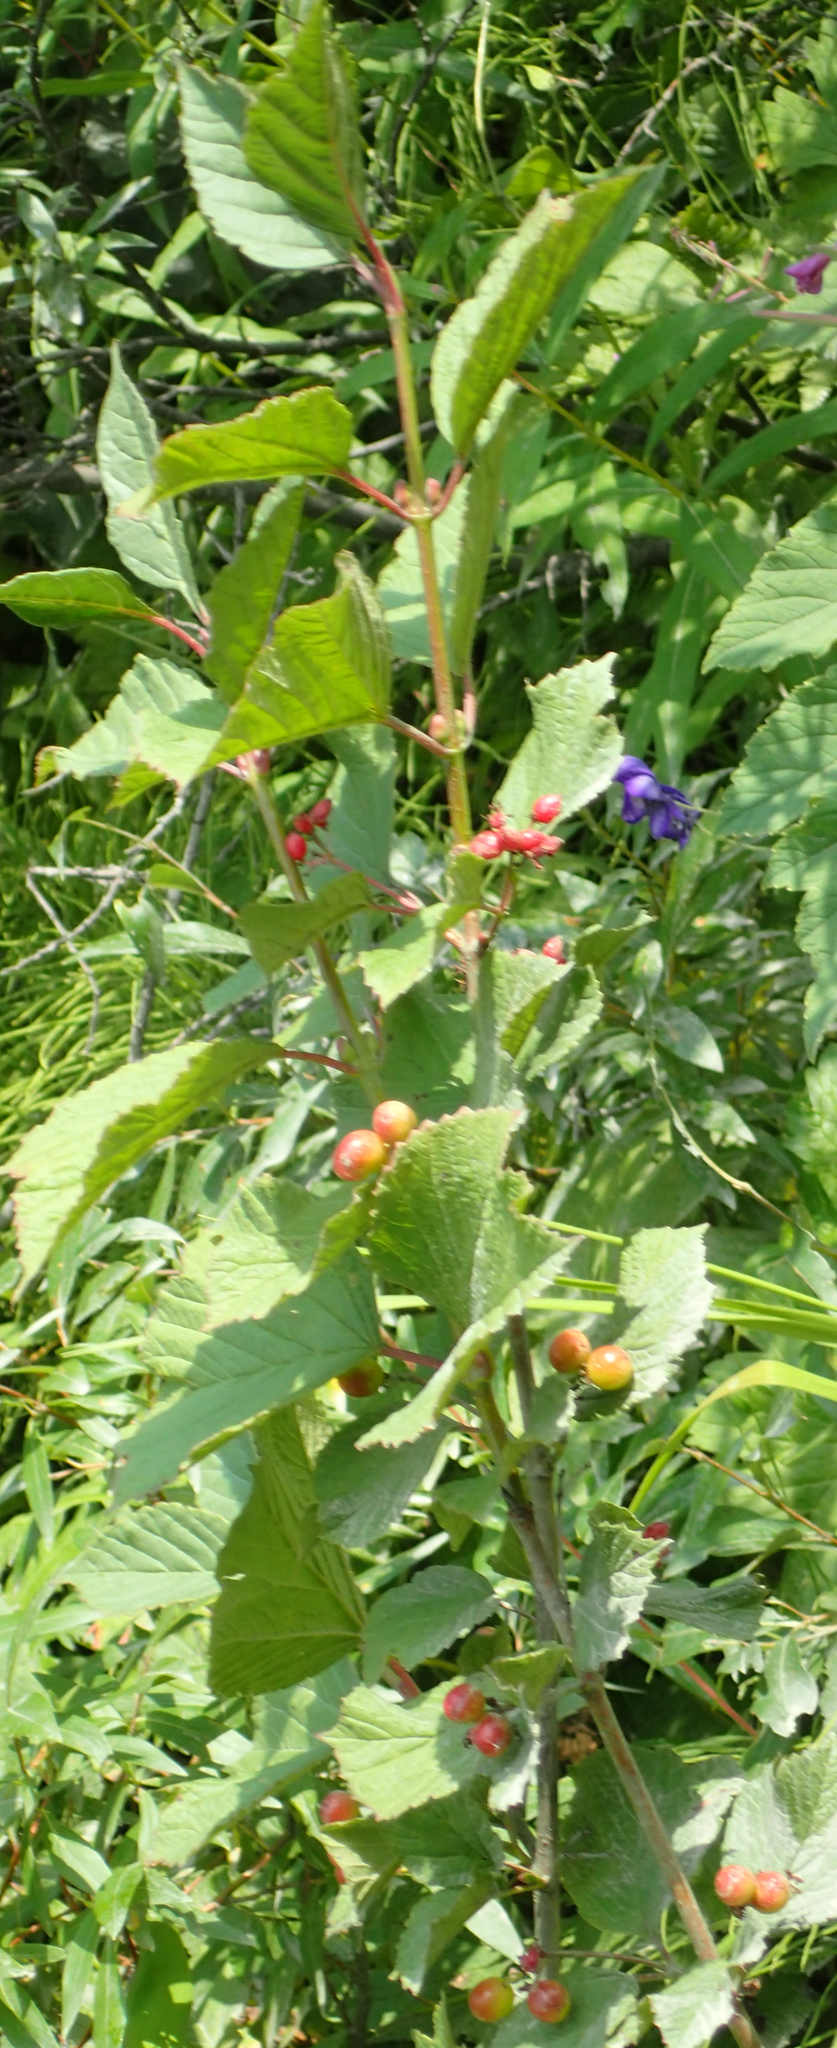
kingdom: Plantae
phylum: Tracheophyta
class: Magnoliopsida
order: Dipsacales
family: Viburnaceae
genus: Viburnum
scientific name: Viburnum edule
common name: Mooseberry
